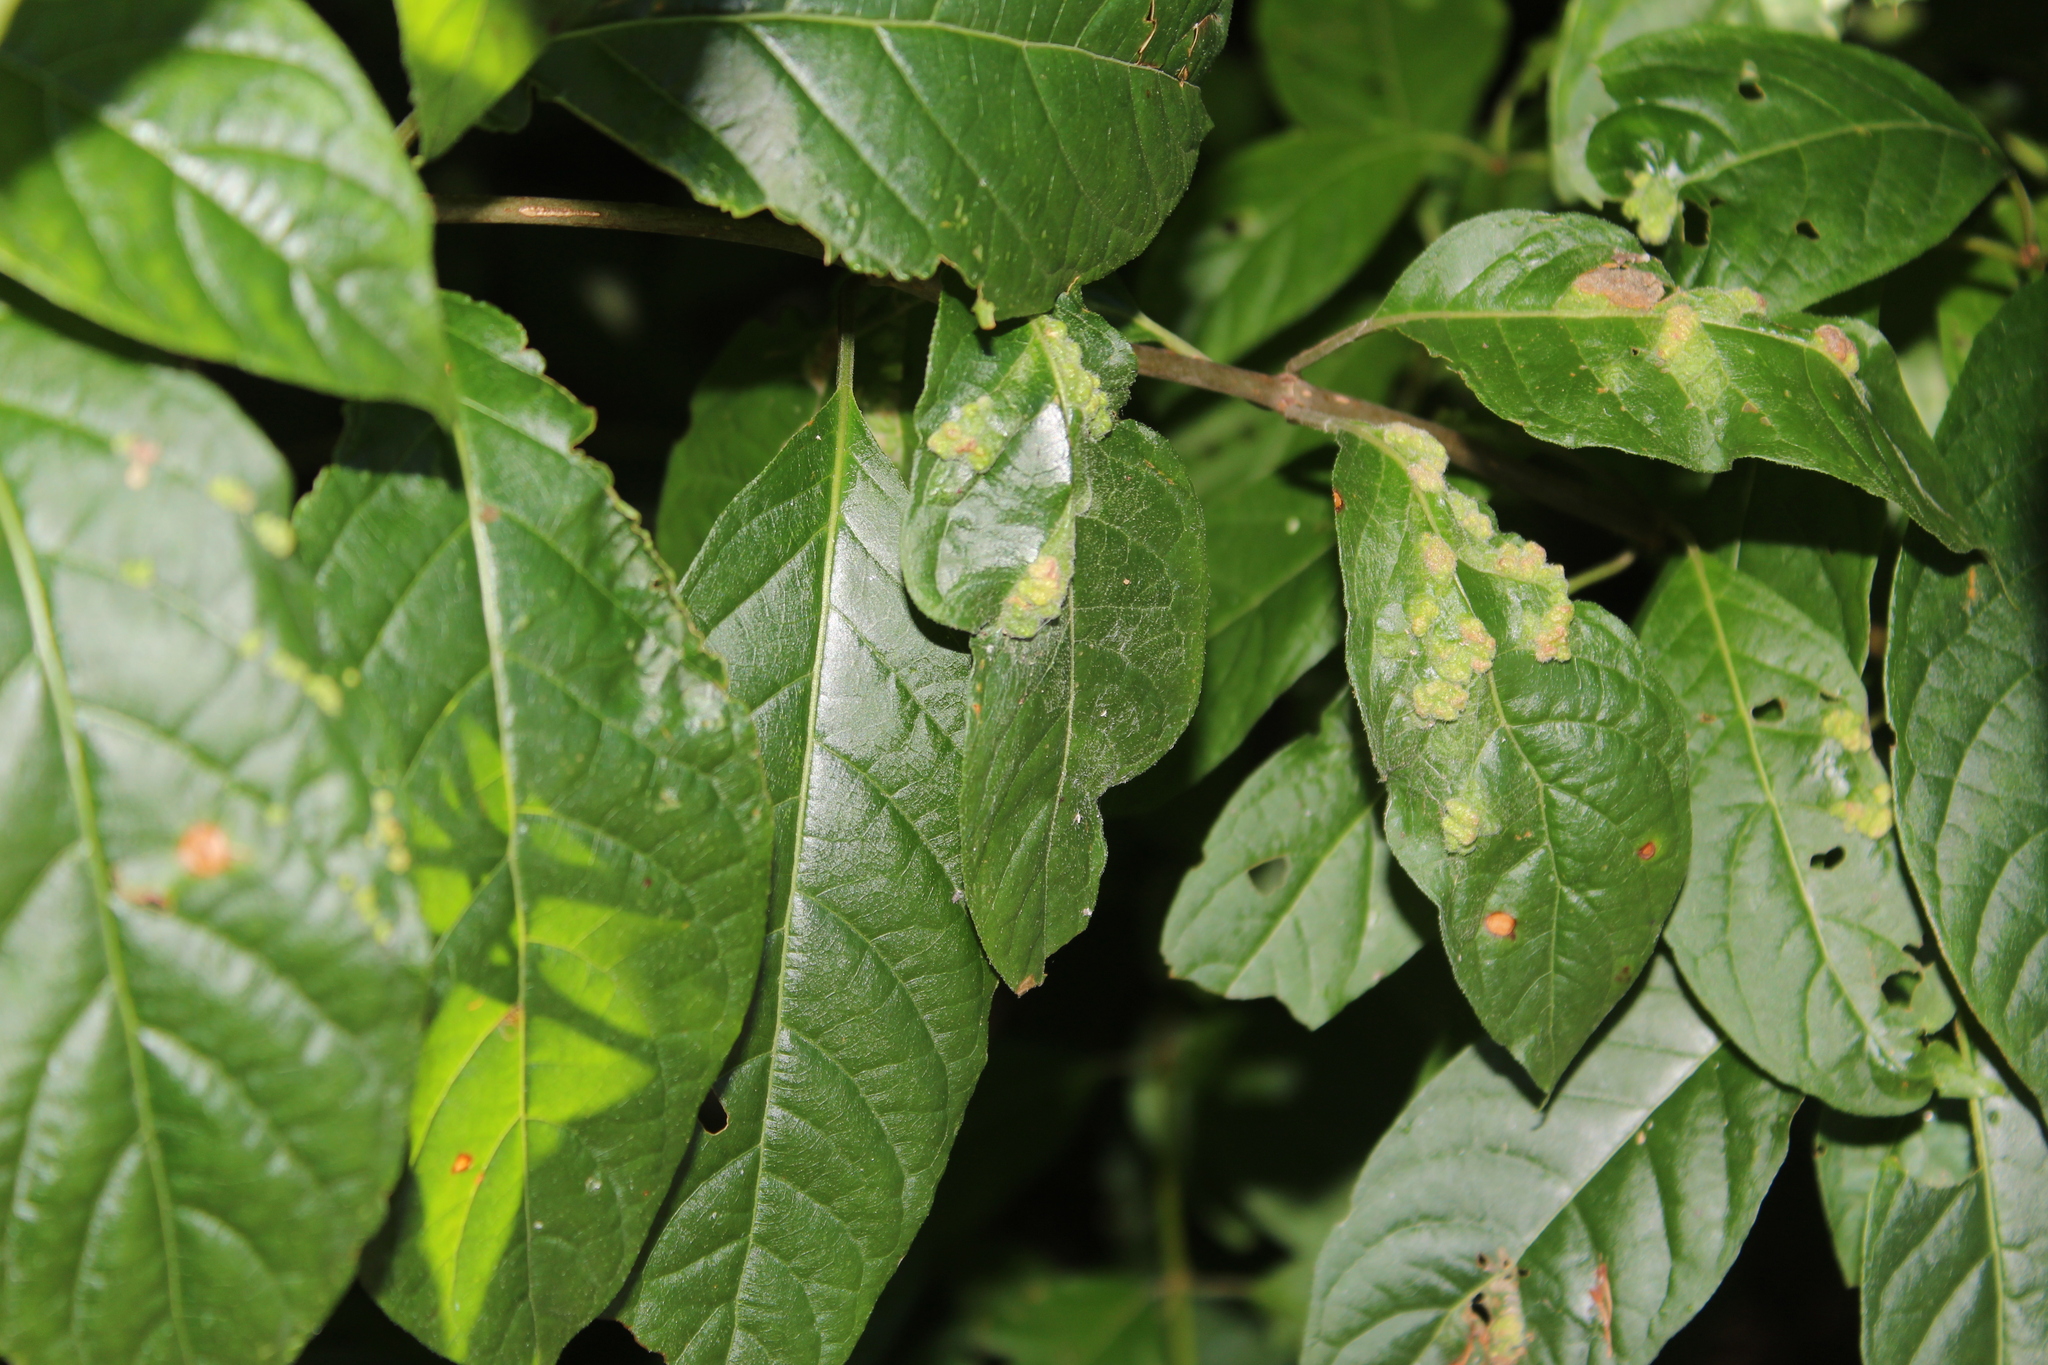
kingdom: Plantae
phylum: Tracheophyta
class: Magnoliopsida
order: Gentianales
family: Rubiaceae
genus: Cephalanthus
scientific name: Cephalanthus occidentalis
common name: Button-willow
